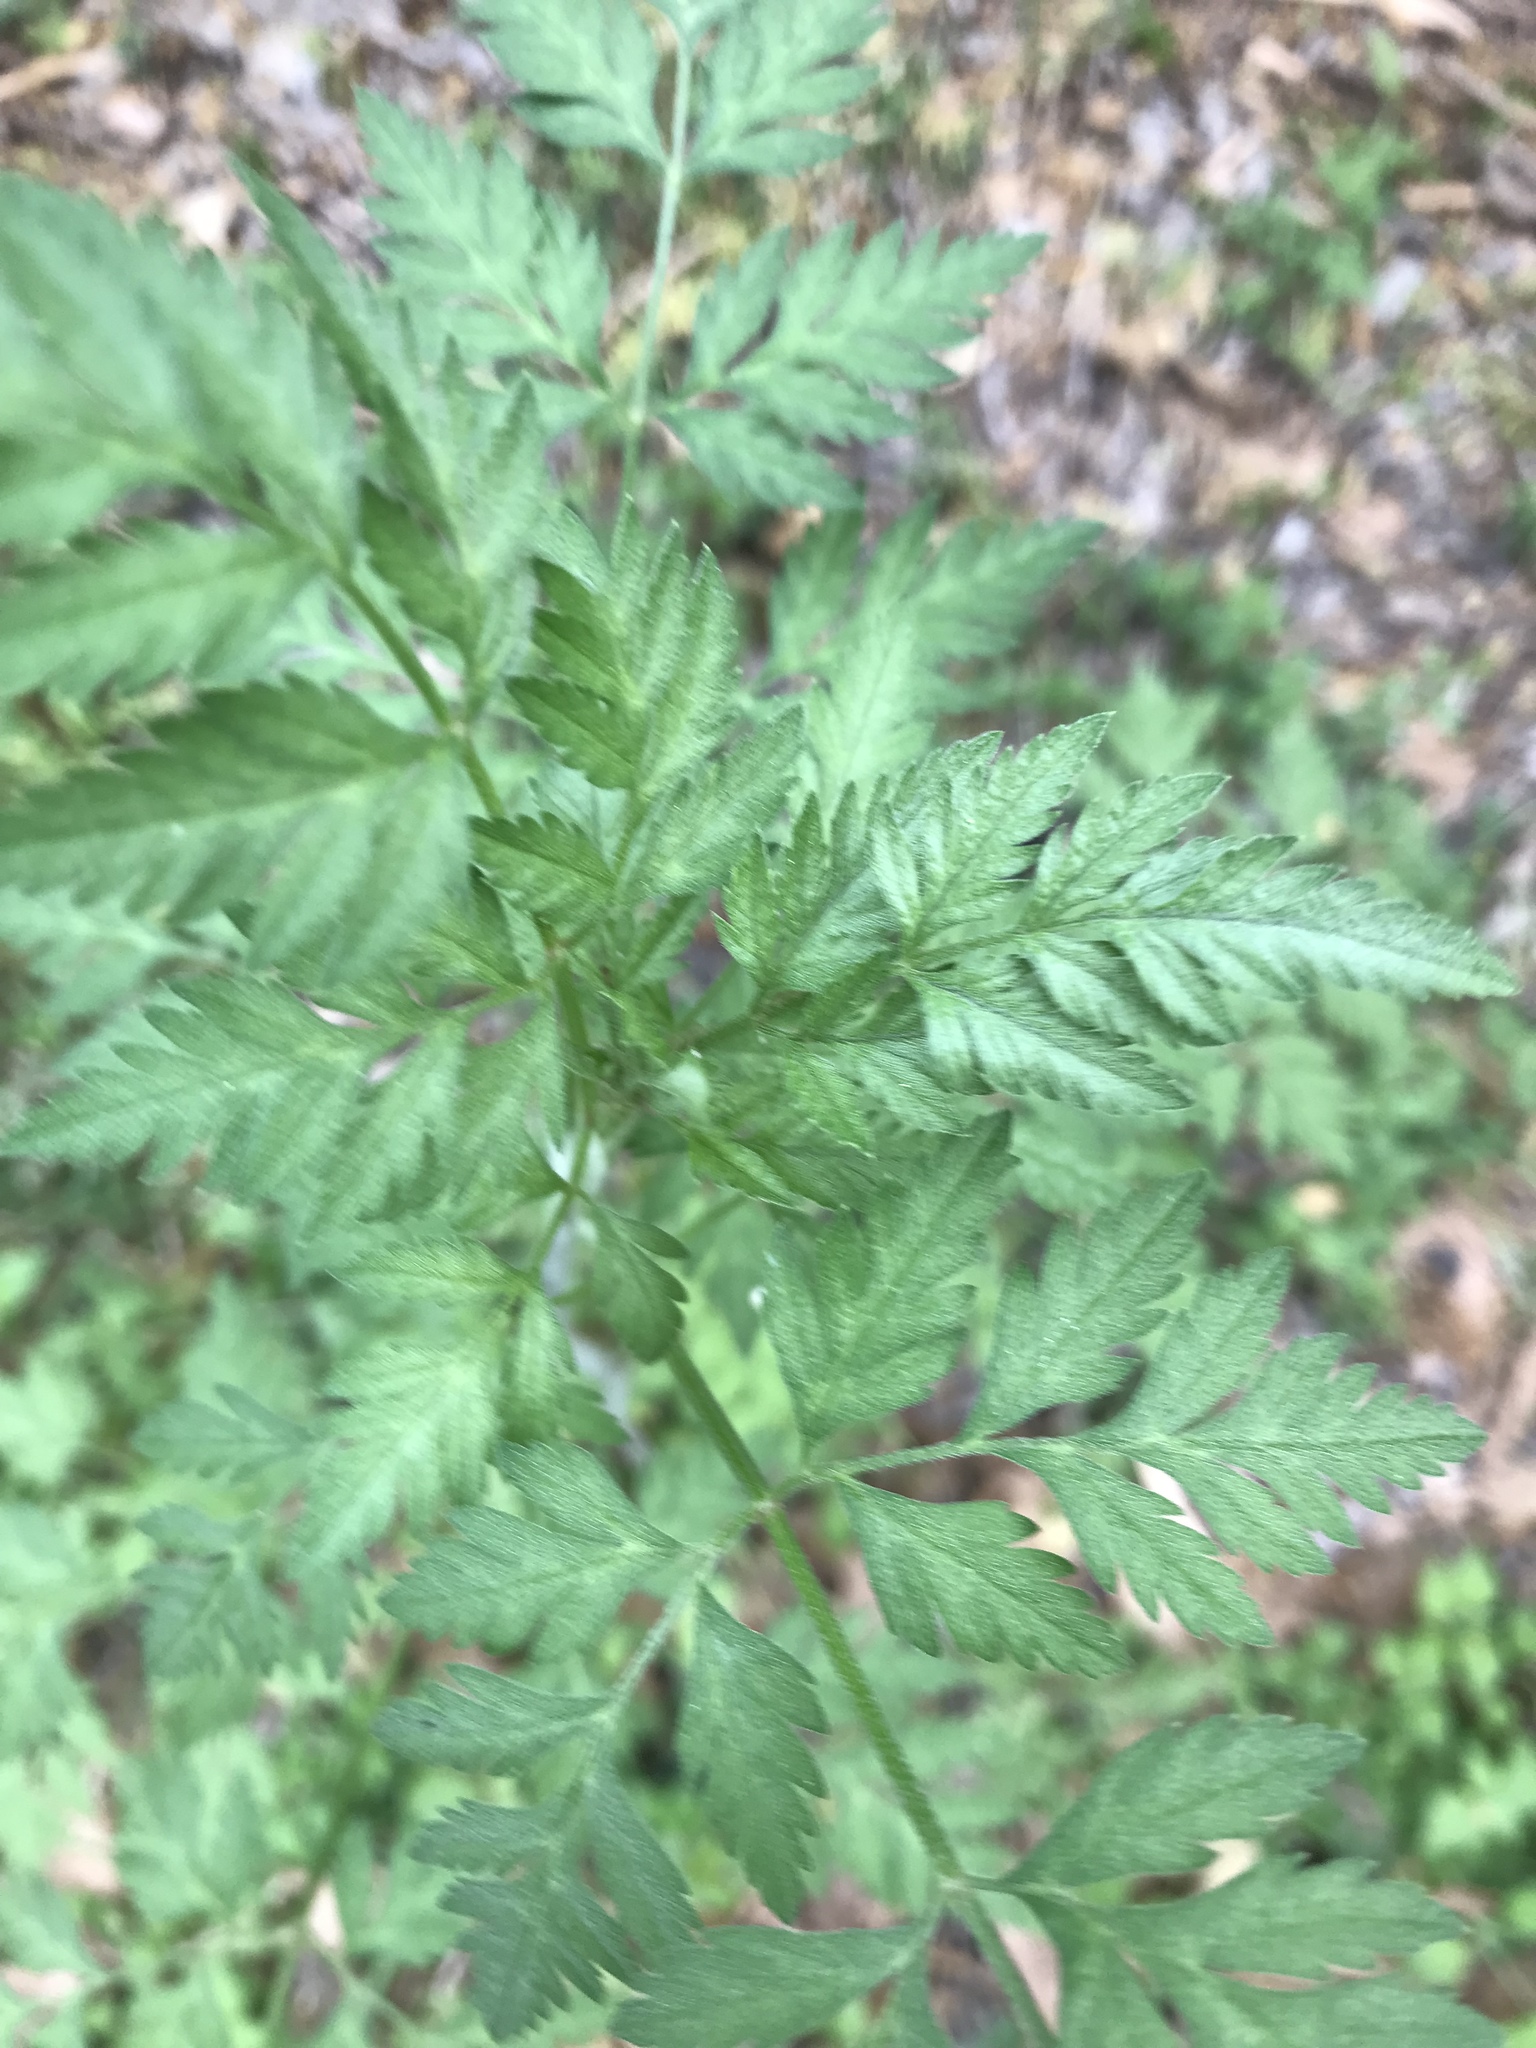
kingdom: Plantae
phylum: Tracheophyta
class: Magnoliopsida
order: Apiales
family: Apiaceae
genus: Torilis
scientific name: Torilis arvensis
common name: Spreading hedge-parsley
